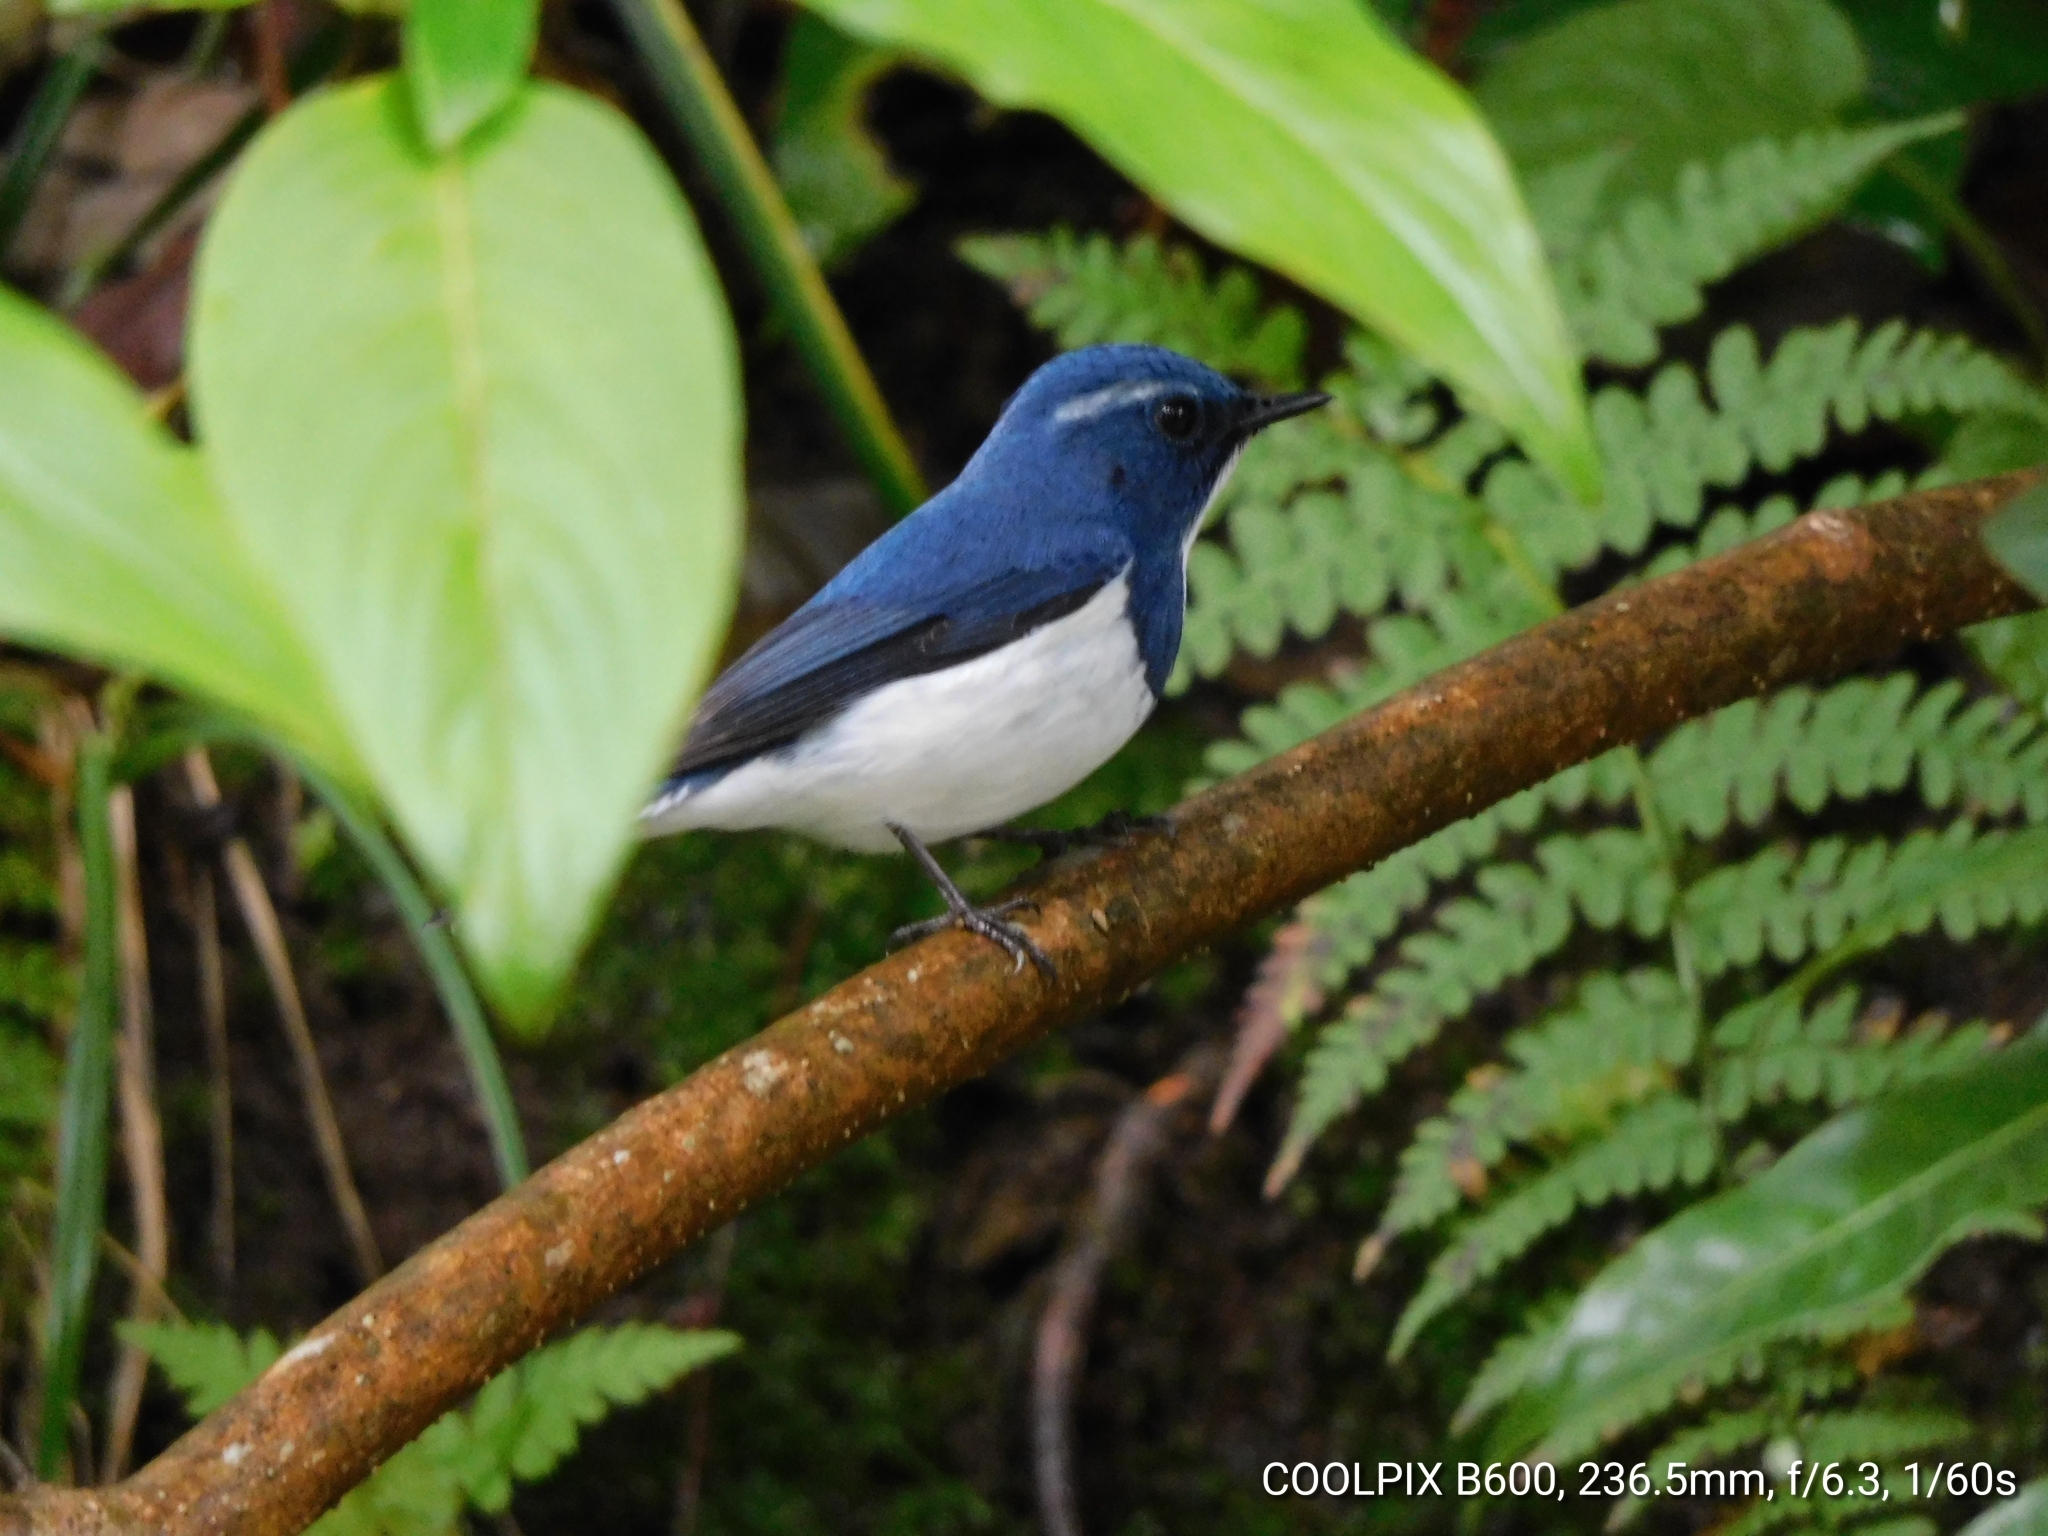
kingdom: Animalia
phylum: Chordata
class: Aves
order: Passeriformes
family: Muscicapidae
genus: Ficedula
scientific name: Ficedula superciliaris
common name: Ultramarine flycatcher
